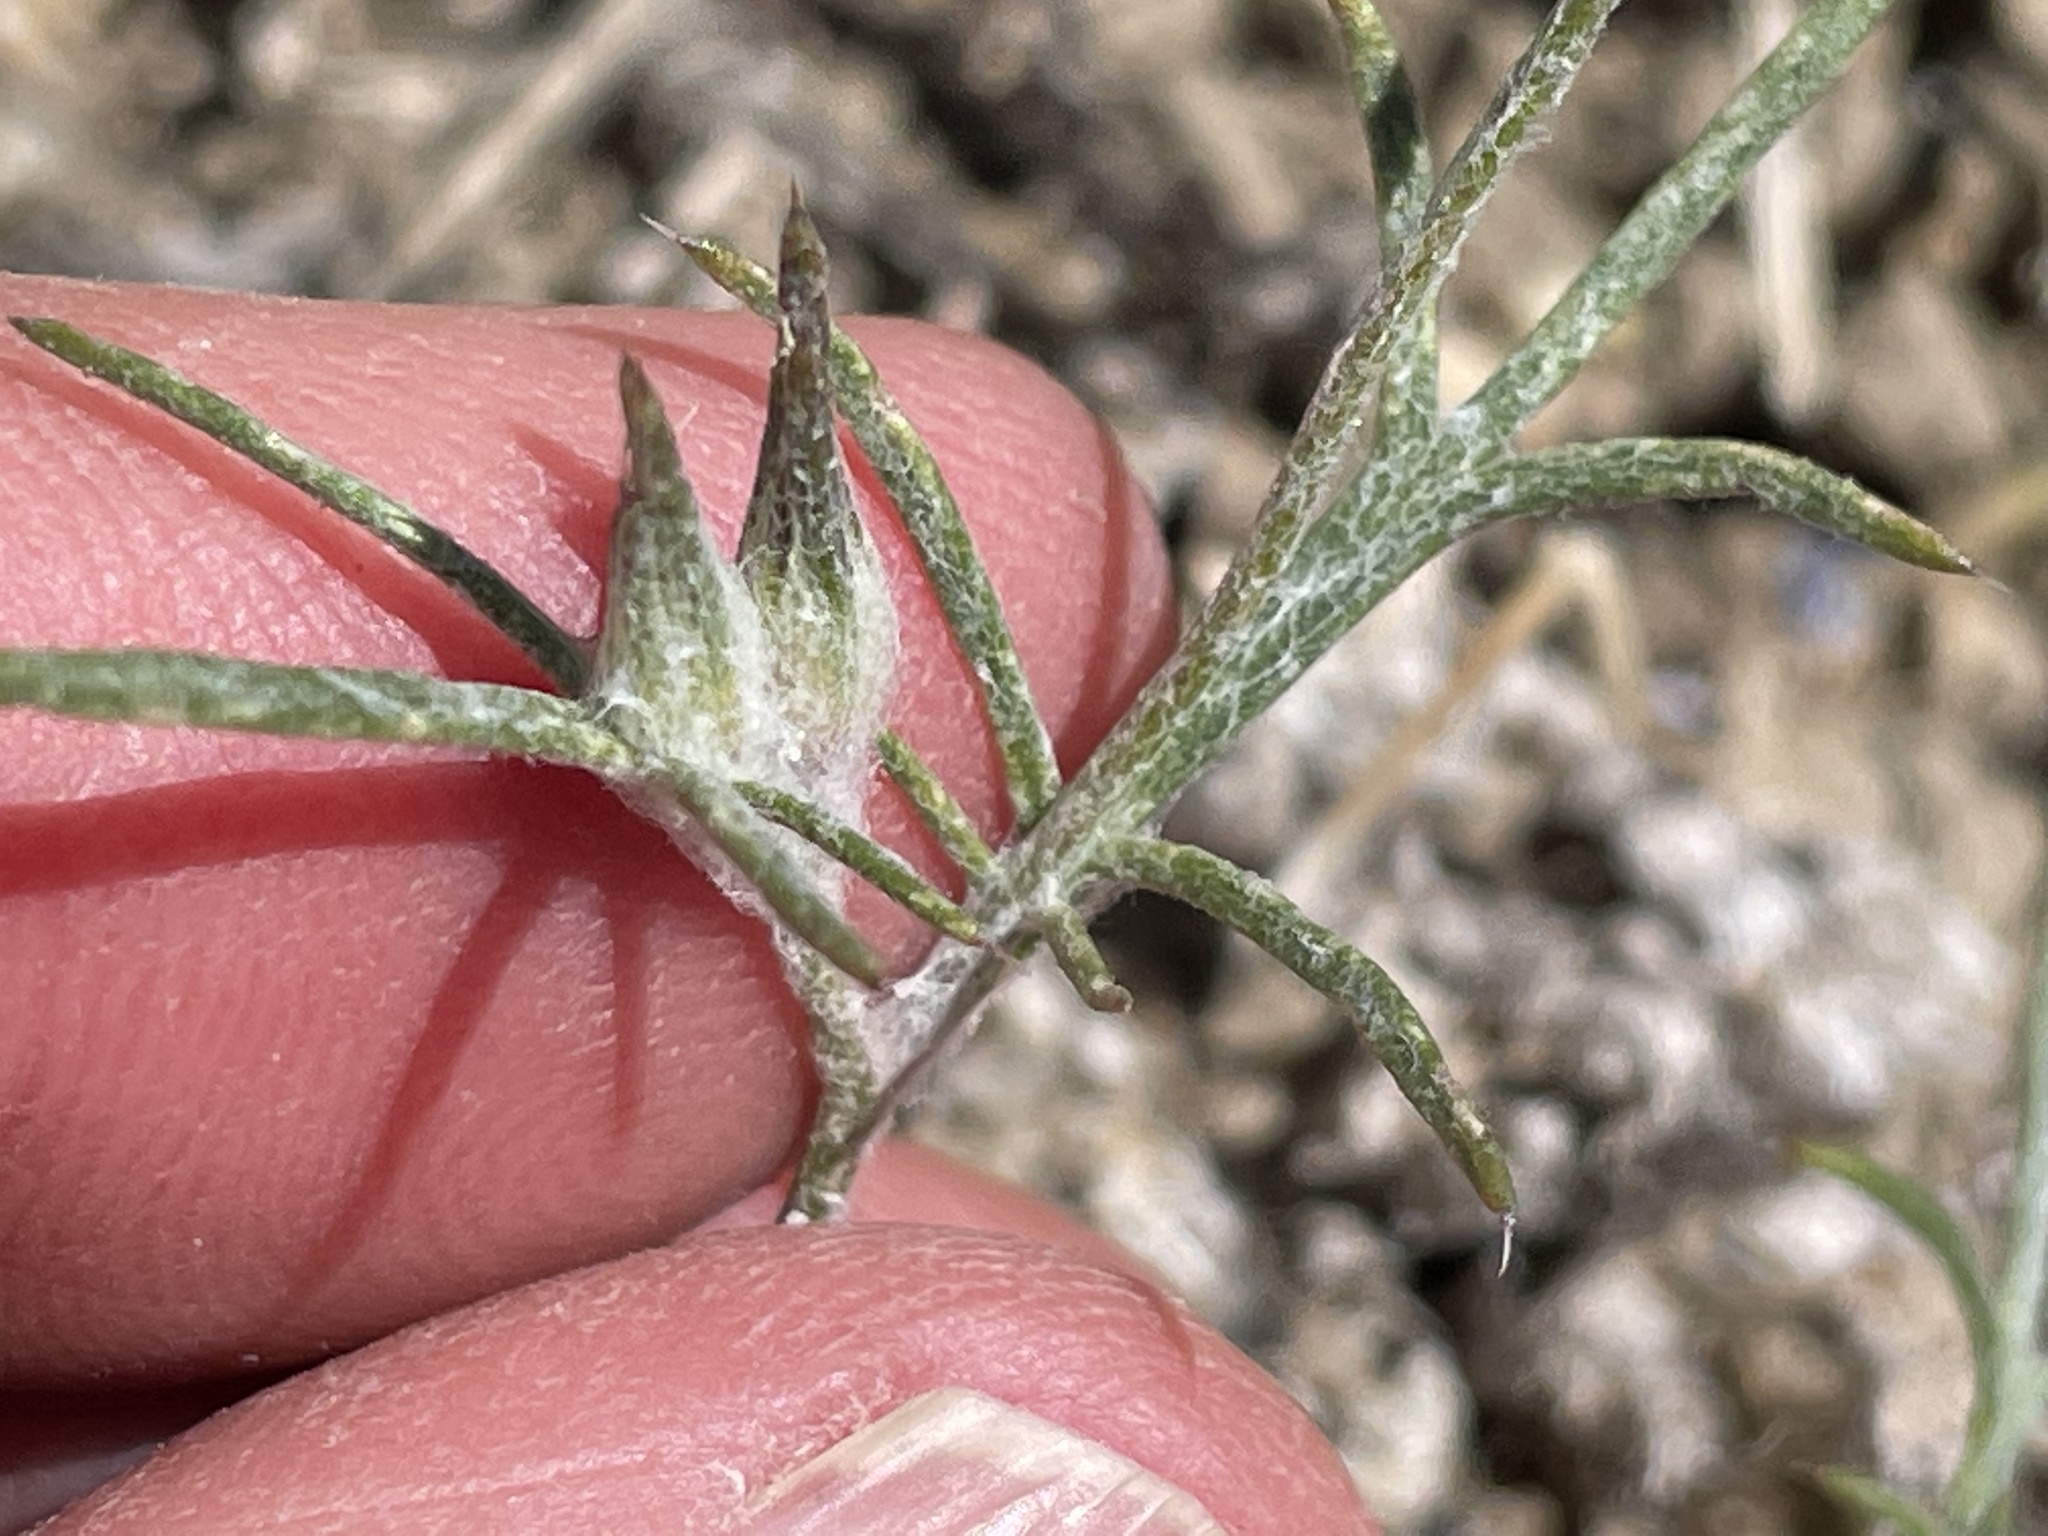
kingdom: Plantae
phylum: Tracheophyta
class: Magnoliopsida
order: Ericales
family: Polemoniaceae
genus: Eriastrum
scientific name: Eriastrum wilcoxii
